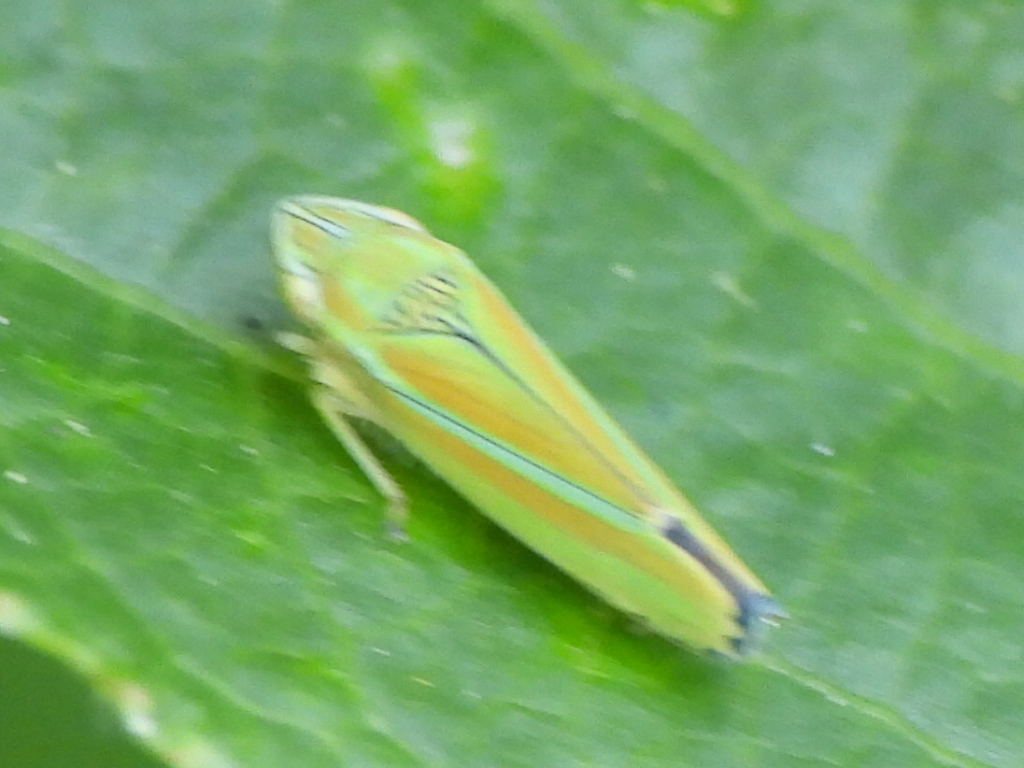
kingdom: Animalia
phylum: Arthropoda
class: Insecta
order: Hemiptera
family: Cicadellidae
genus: Graphocephala
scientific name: Graphocephala versuta
